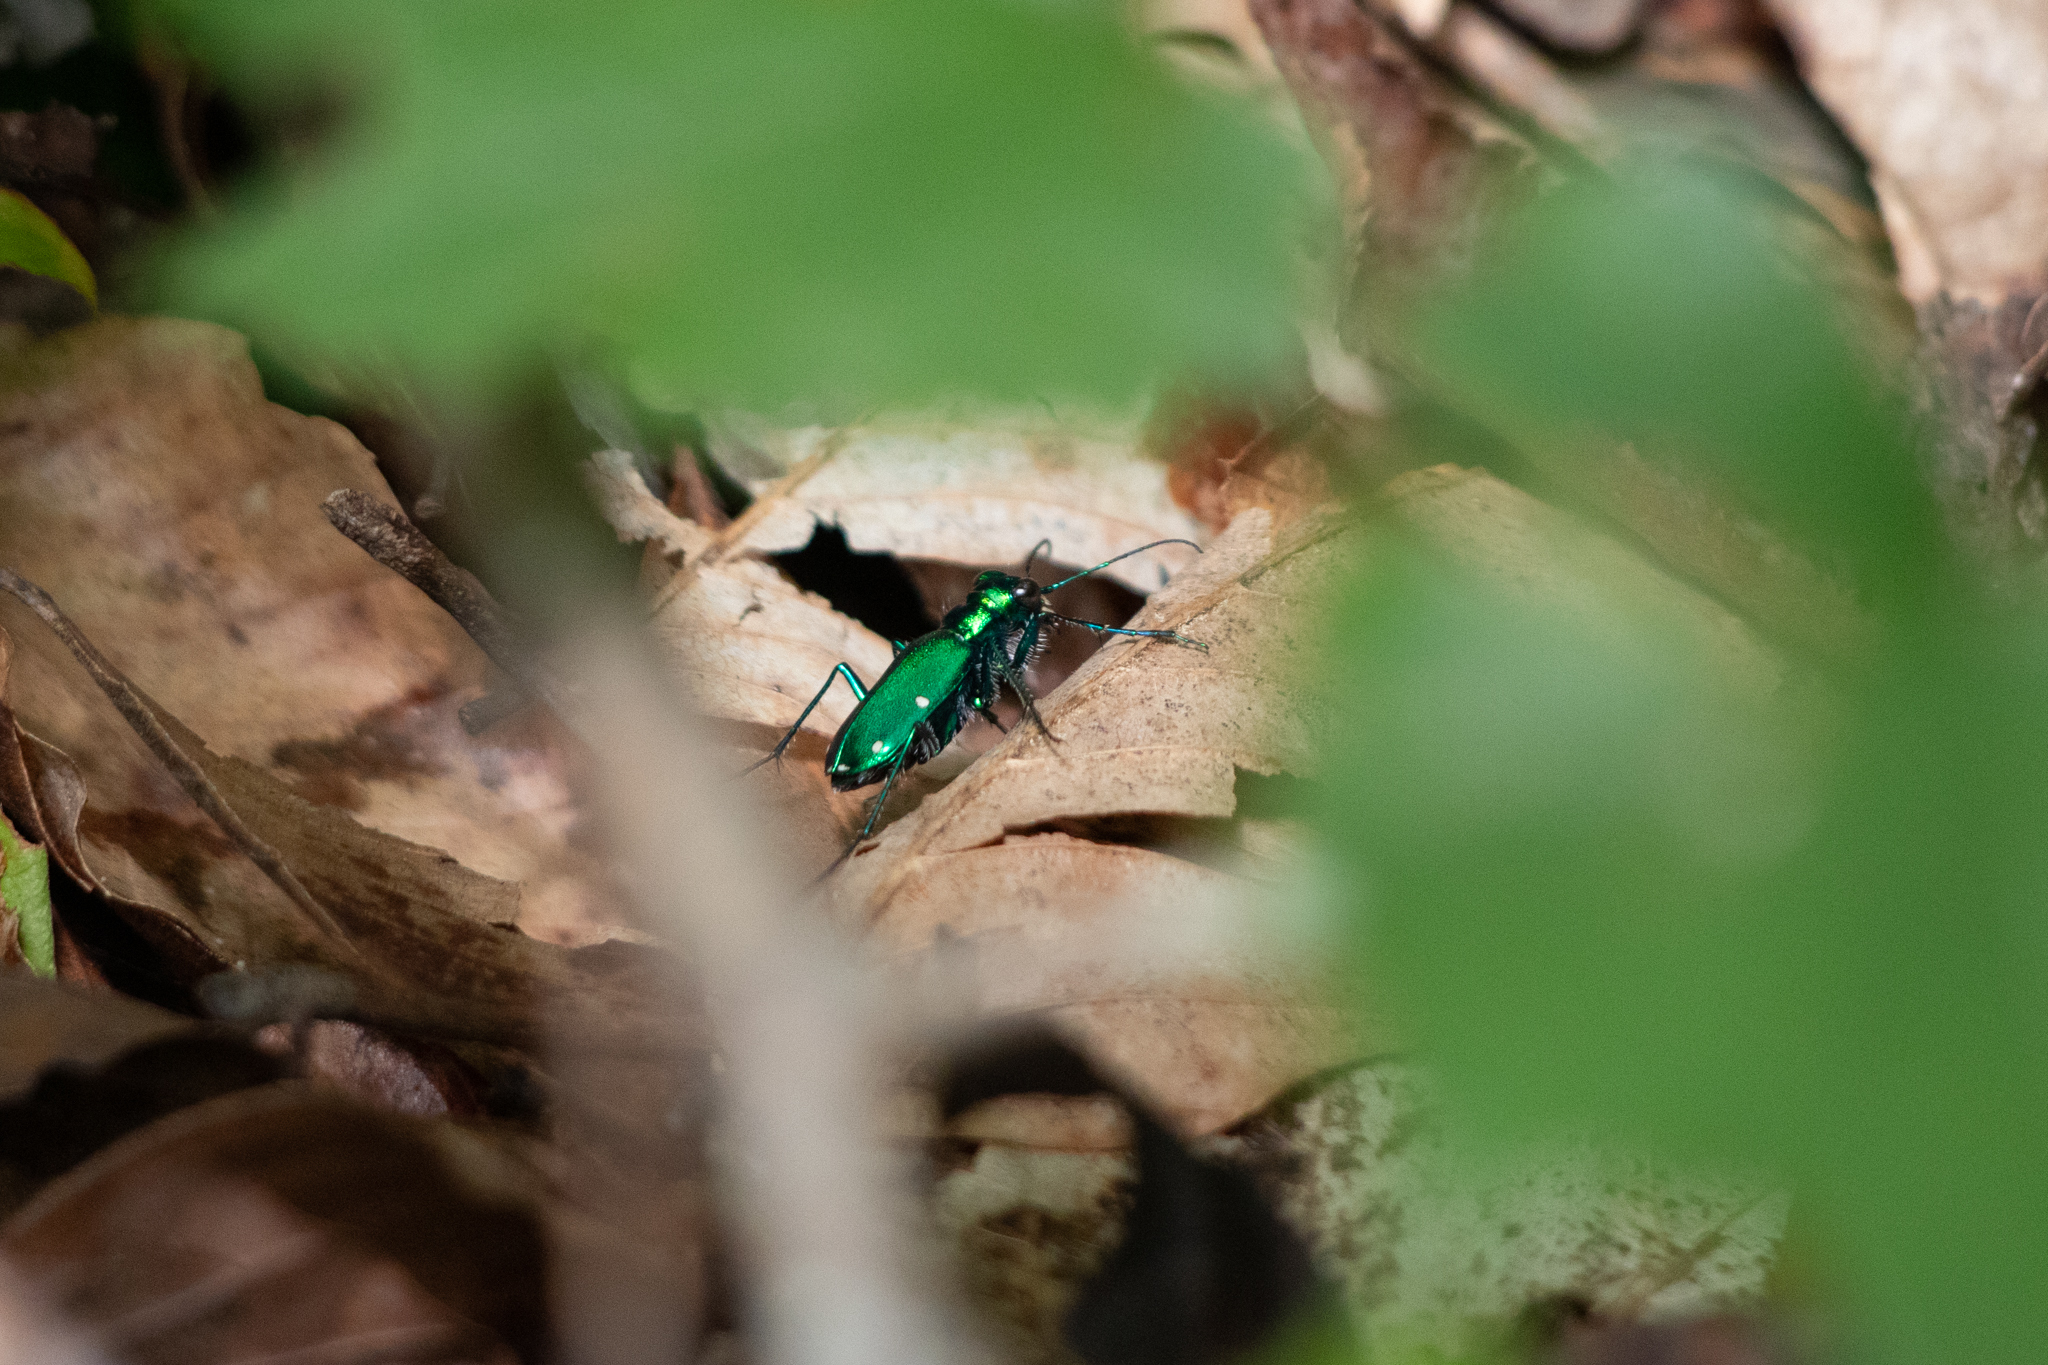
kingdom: Animalia
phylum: Arthropoda
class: Insecta
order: Coleoptera
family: Carabidae
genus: Cicindela
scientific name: Cicindela sexguttata
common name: Six-spotted tiger beetle
